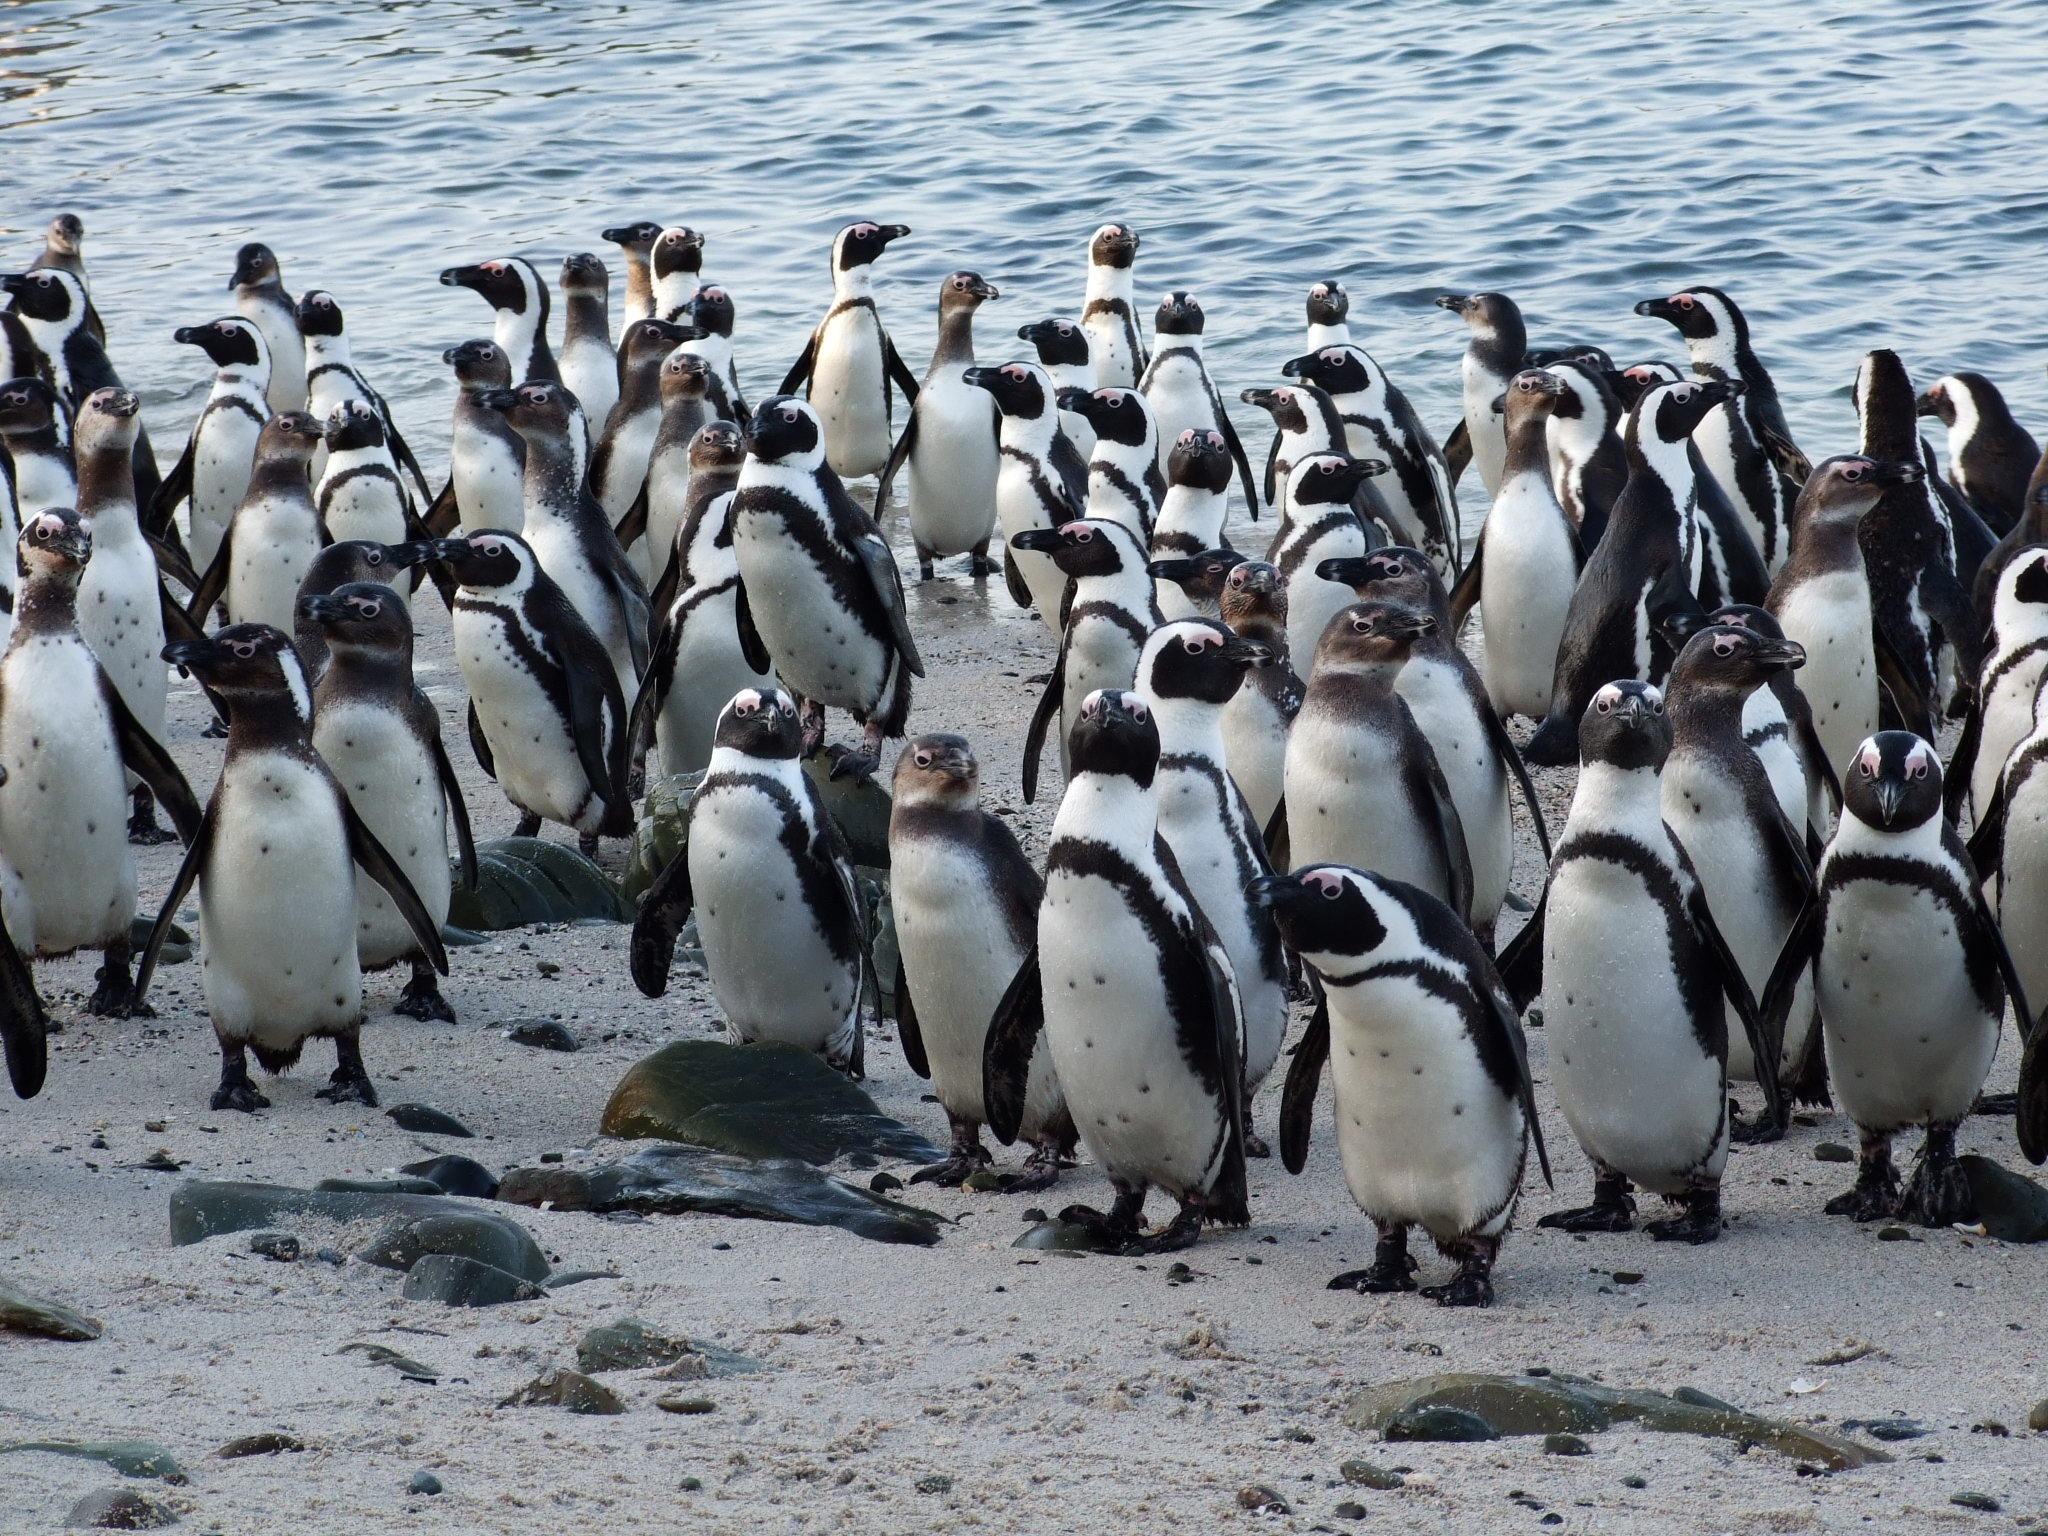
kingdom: Animalia
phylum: Chordata
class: Aves
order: Sphenisciformes
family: Spheniscidae
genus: Spheniscus
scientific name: Spheniscus demersus
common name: African penguin
